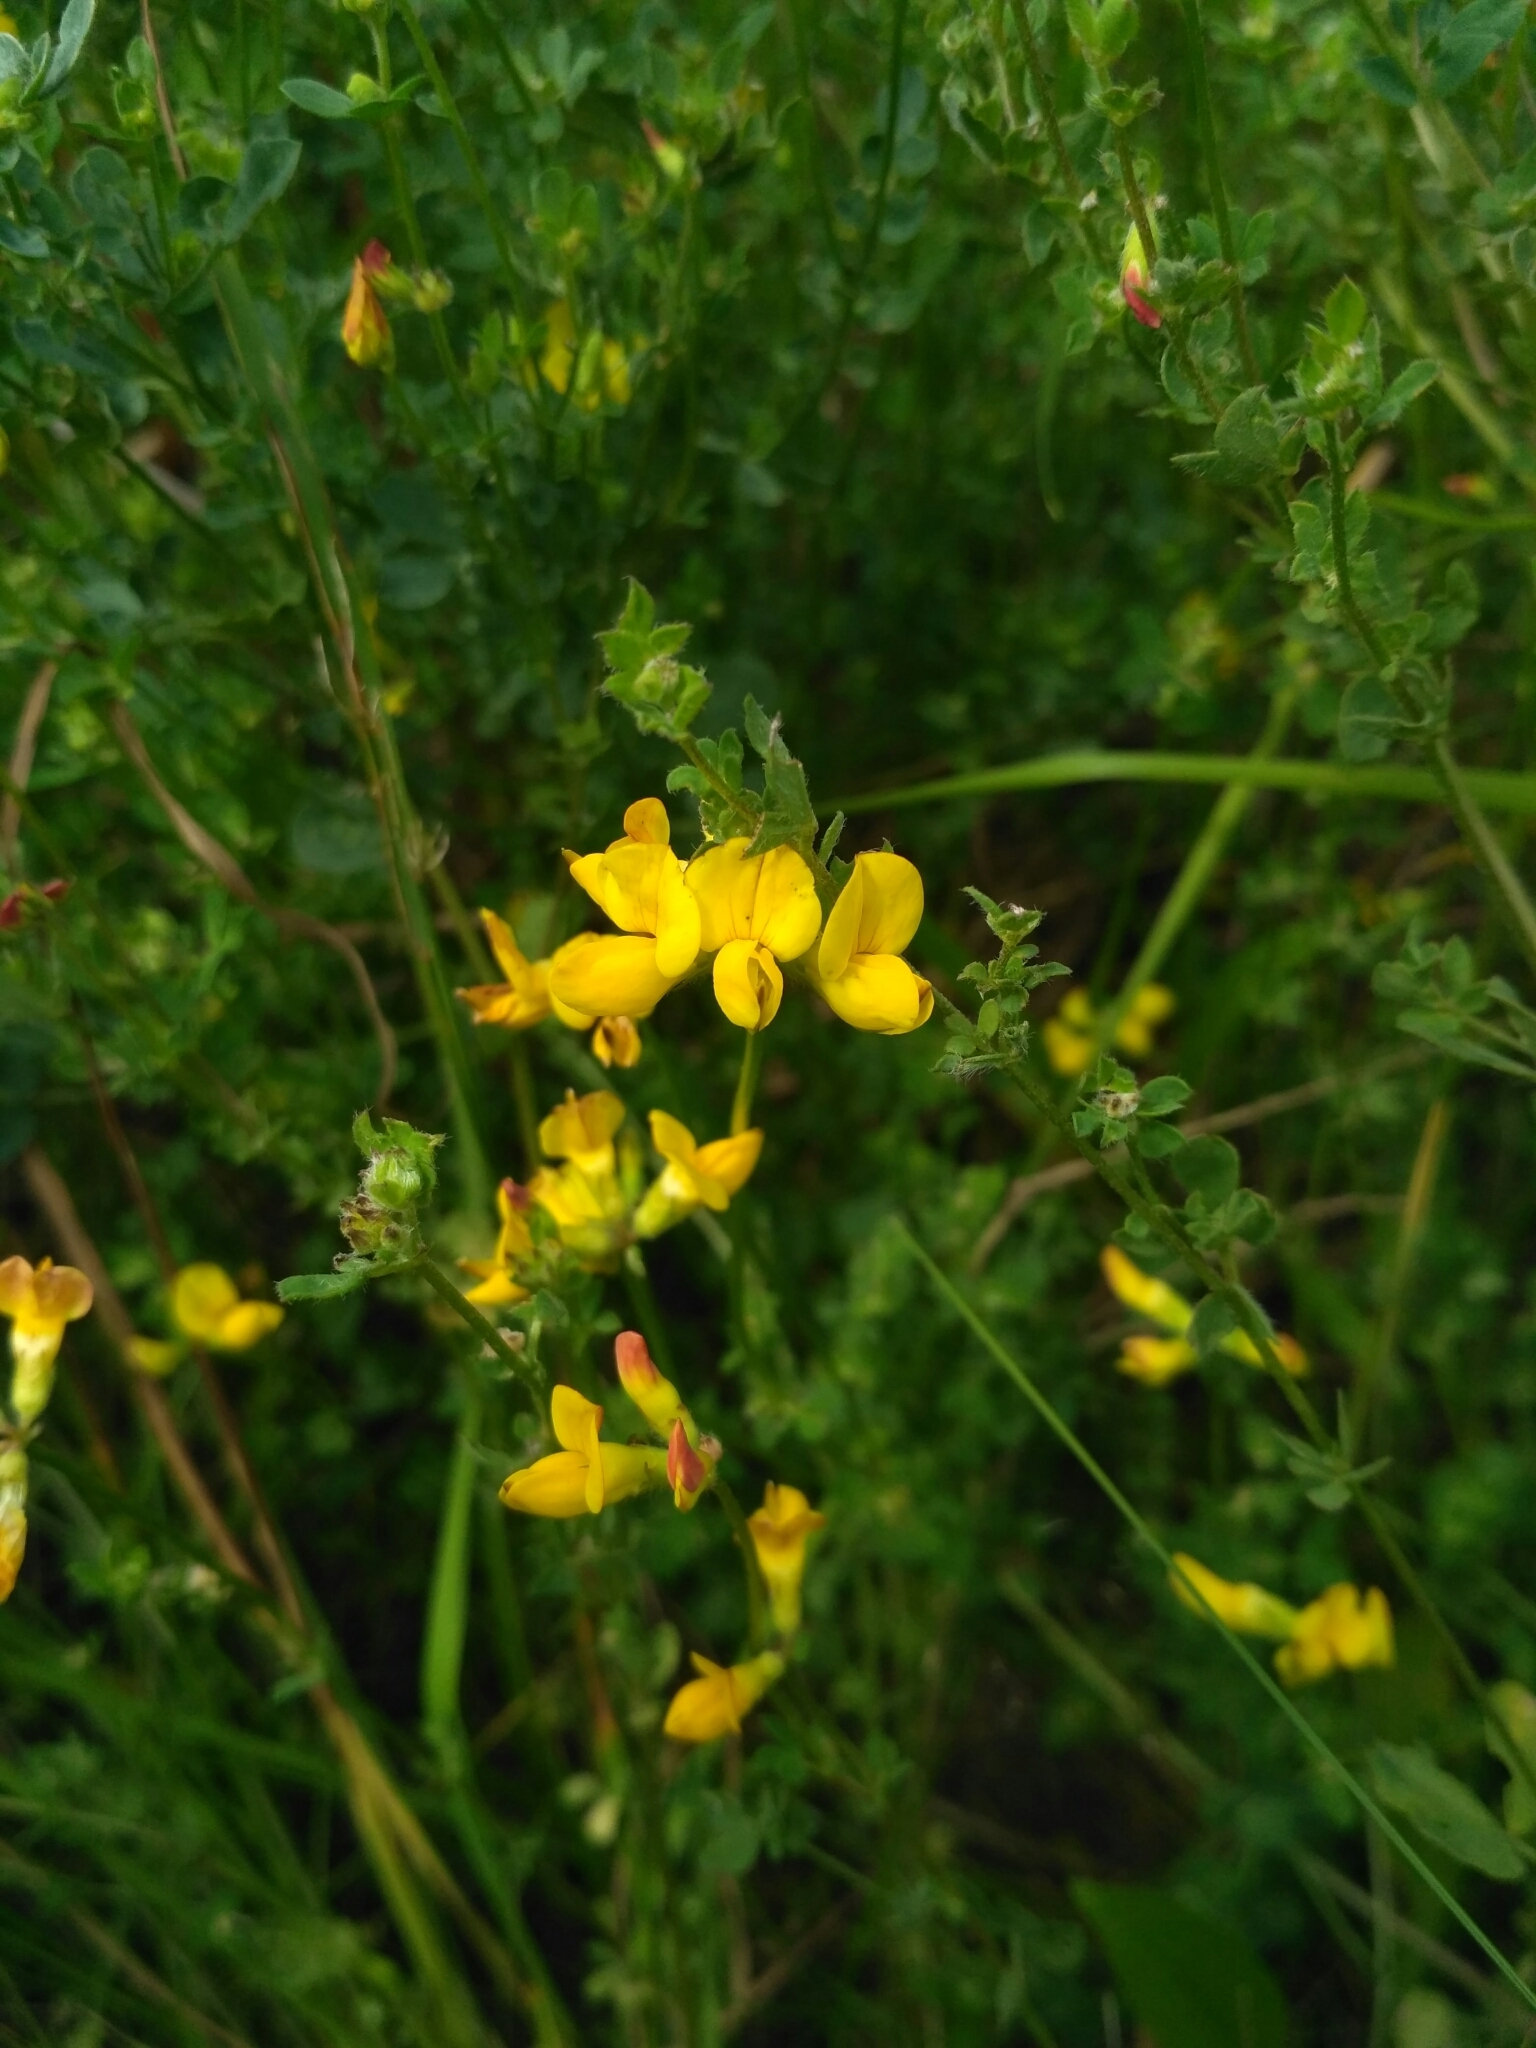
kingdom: Plantae
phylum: Tracheophyta
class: Magnoliopsida
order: Fabales
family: Fabaceae
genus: Lotus
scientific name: Lotus corniculatus
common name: Common bird's-foot-trefoil
